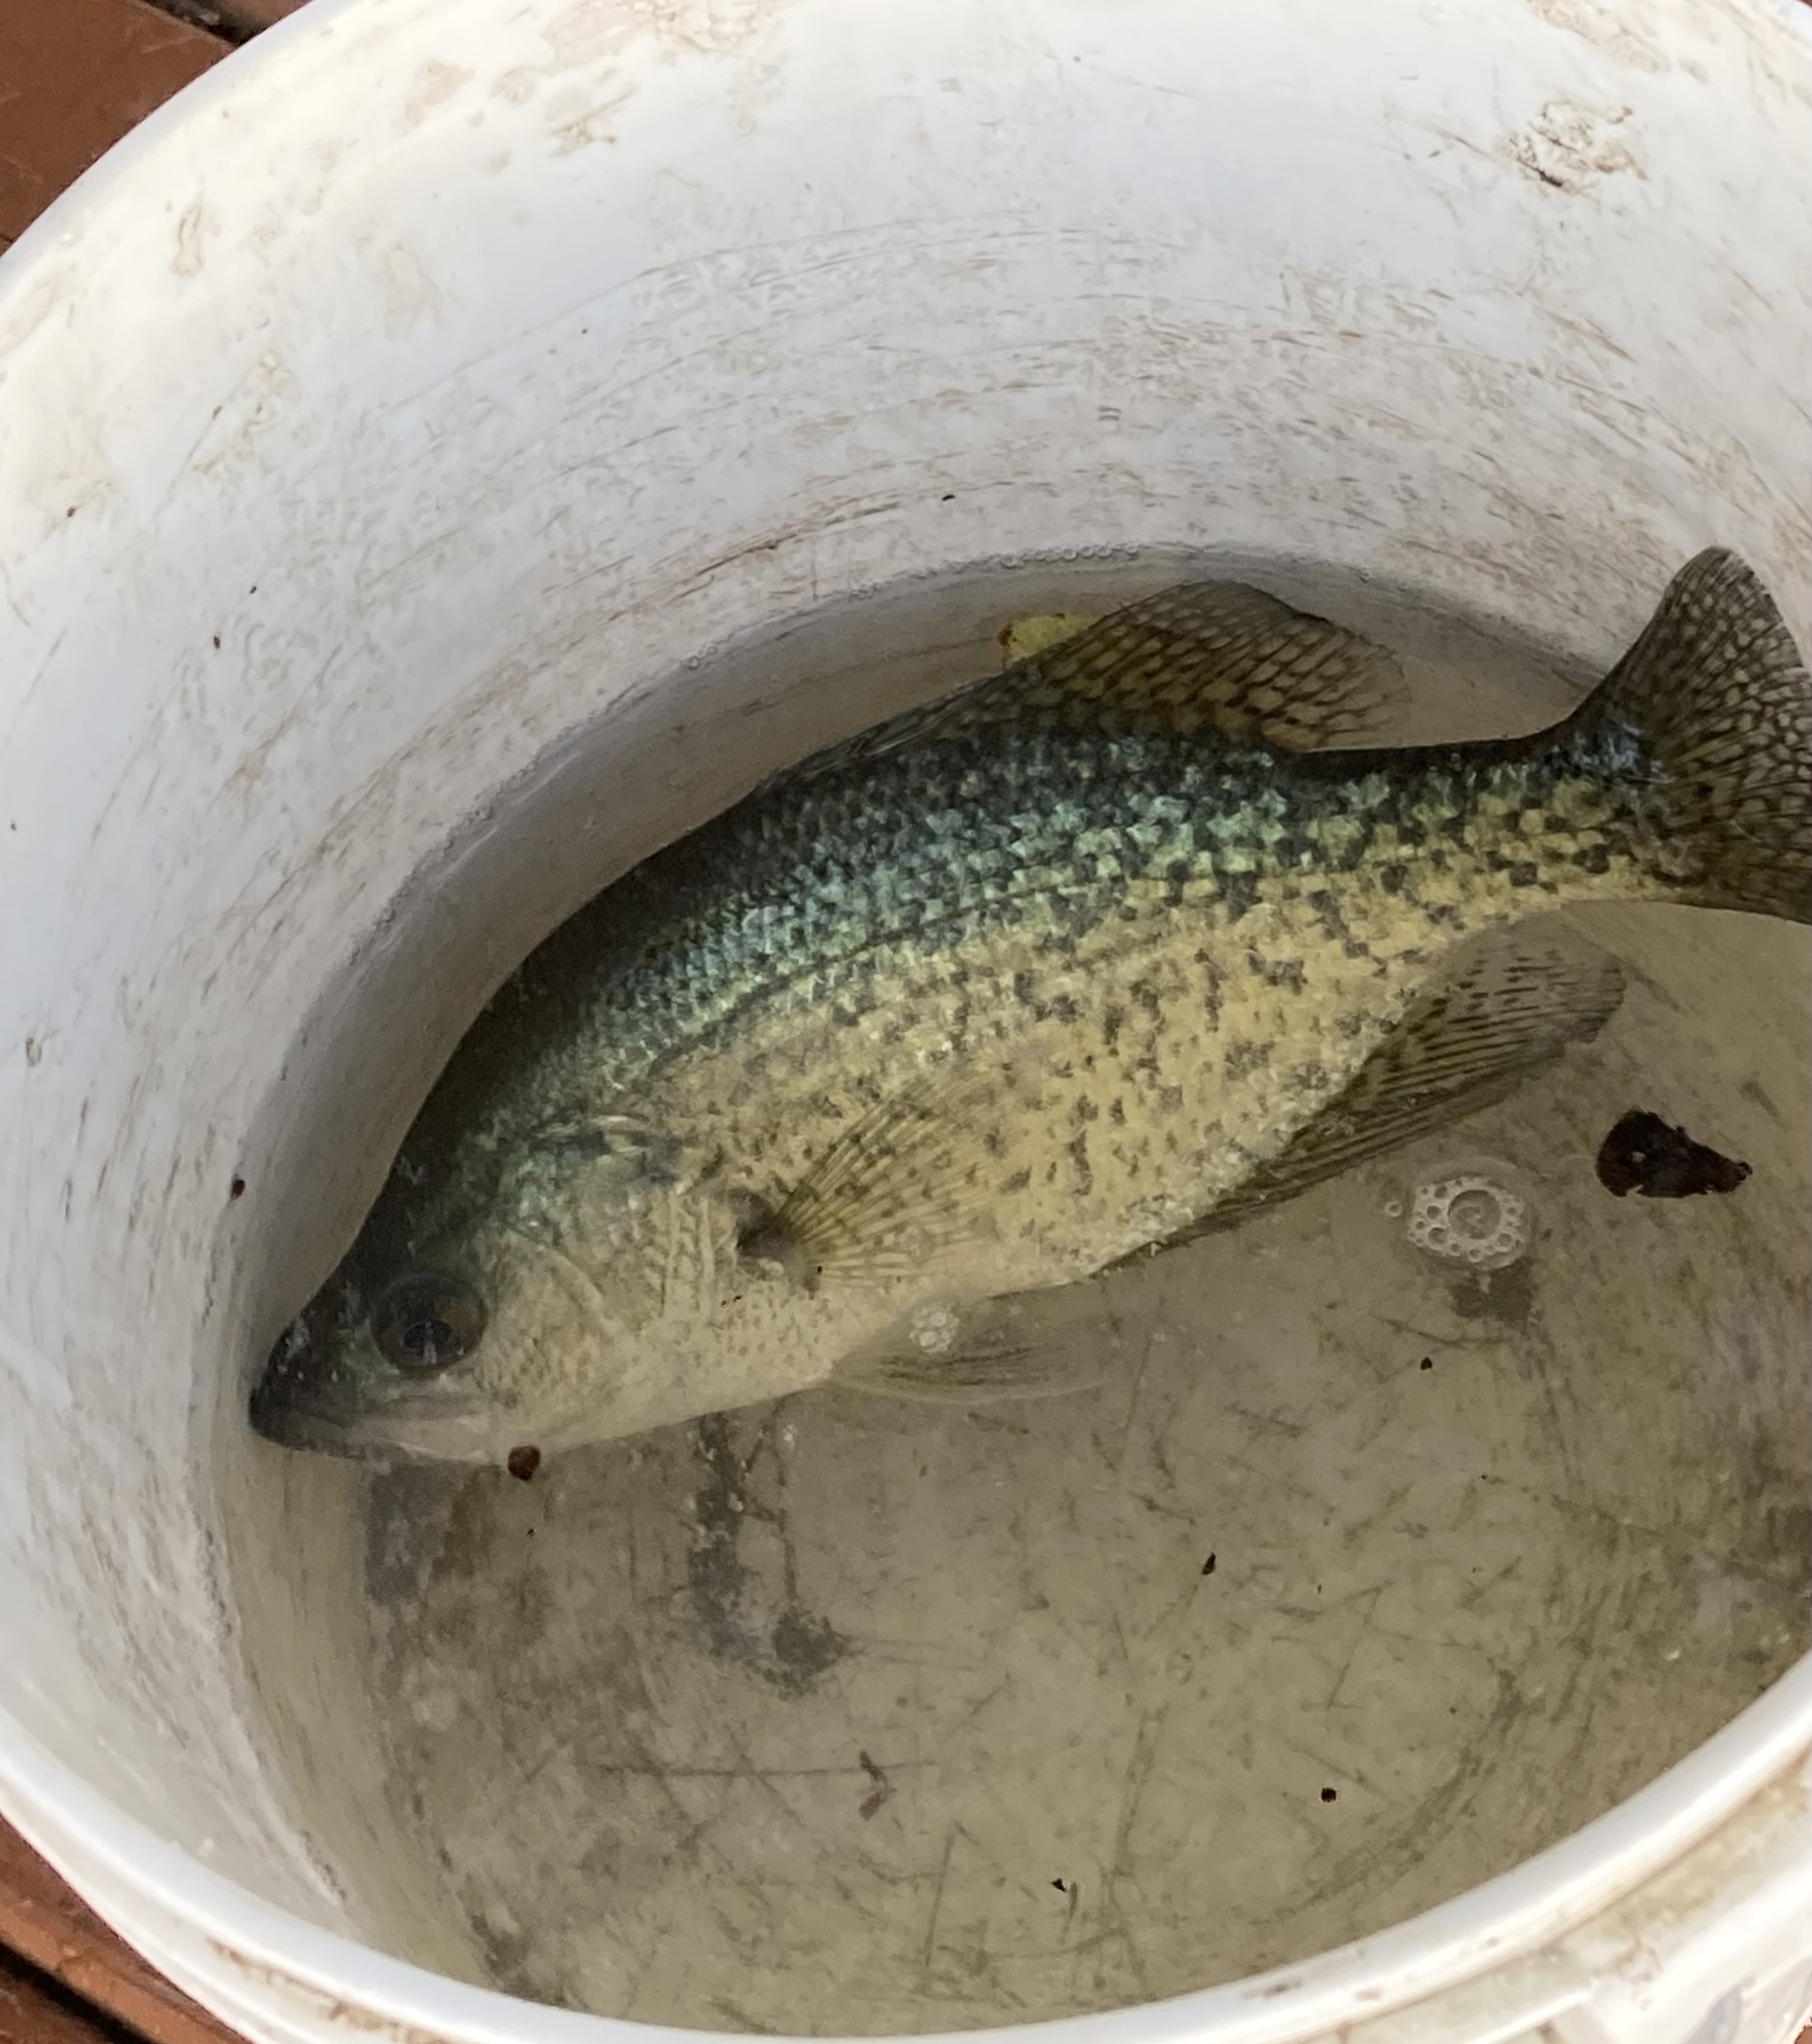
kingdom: Animalia
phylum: Chordata
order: Perciformes
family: Centrarchidae
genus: Pomoxis
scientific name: Pomoxis nigromaculatus
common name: Black crappie
